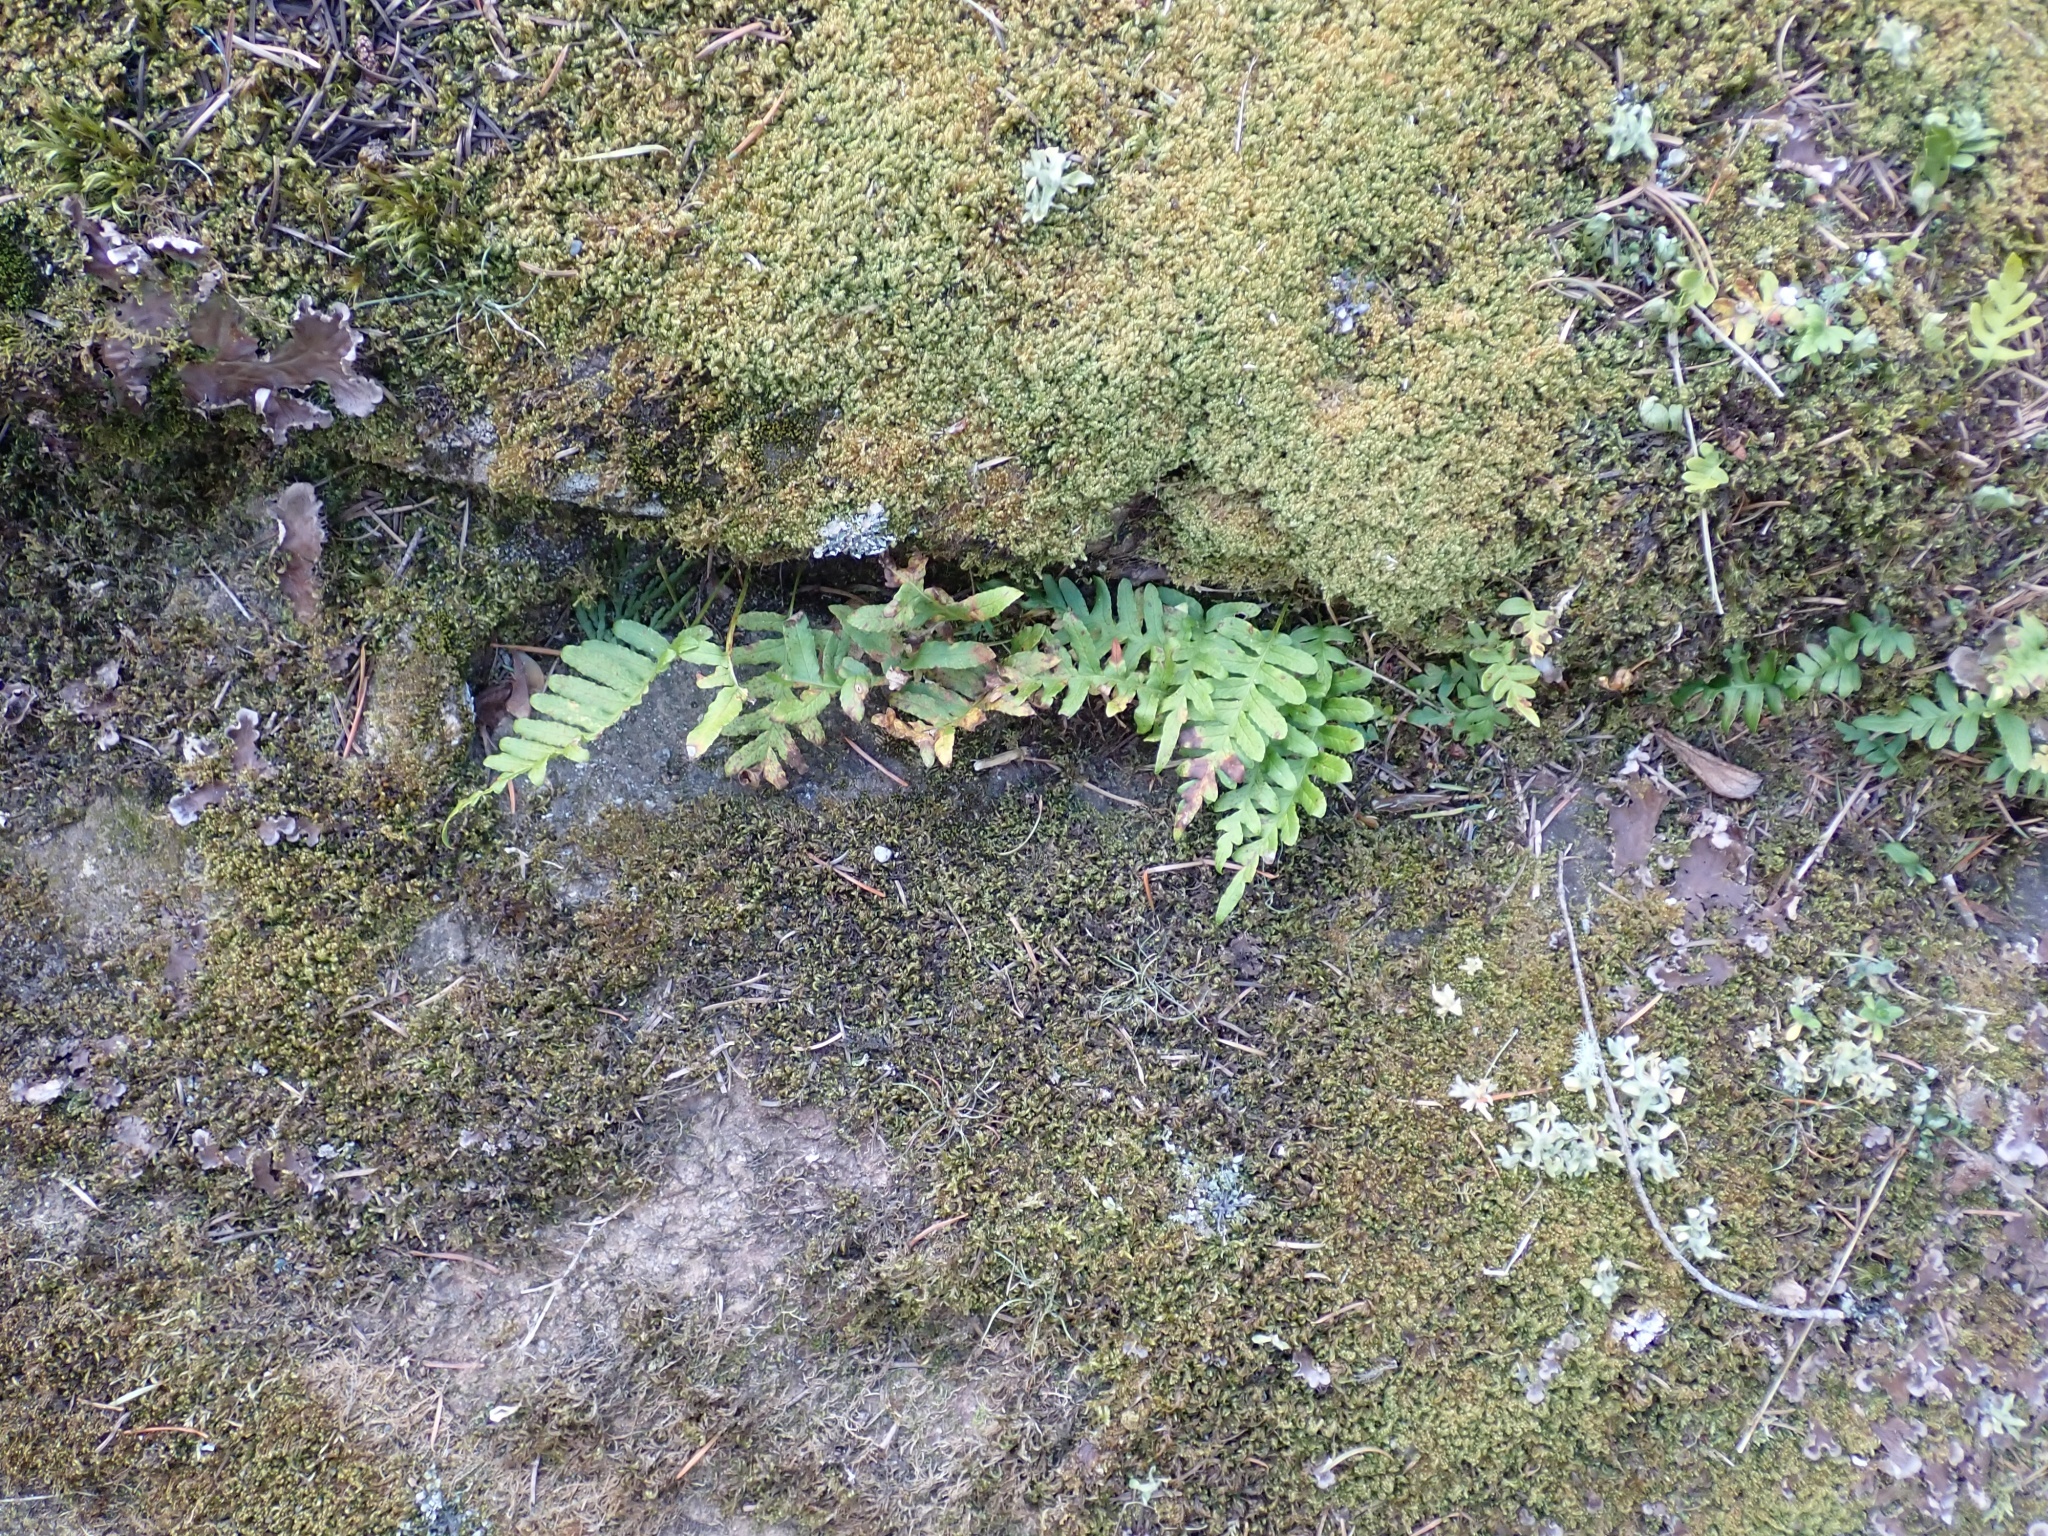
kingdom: Plantae
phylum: Tracheophyta
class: Polypodiopsida
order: Polypodiales
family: Polypodiaceae
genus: Polypodium
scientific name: Polypodium glycyrrhiza
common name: Licorice fern
